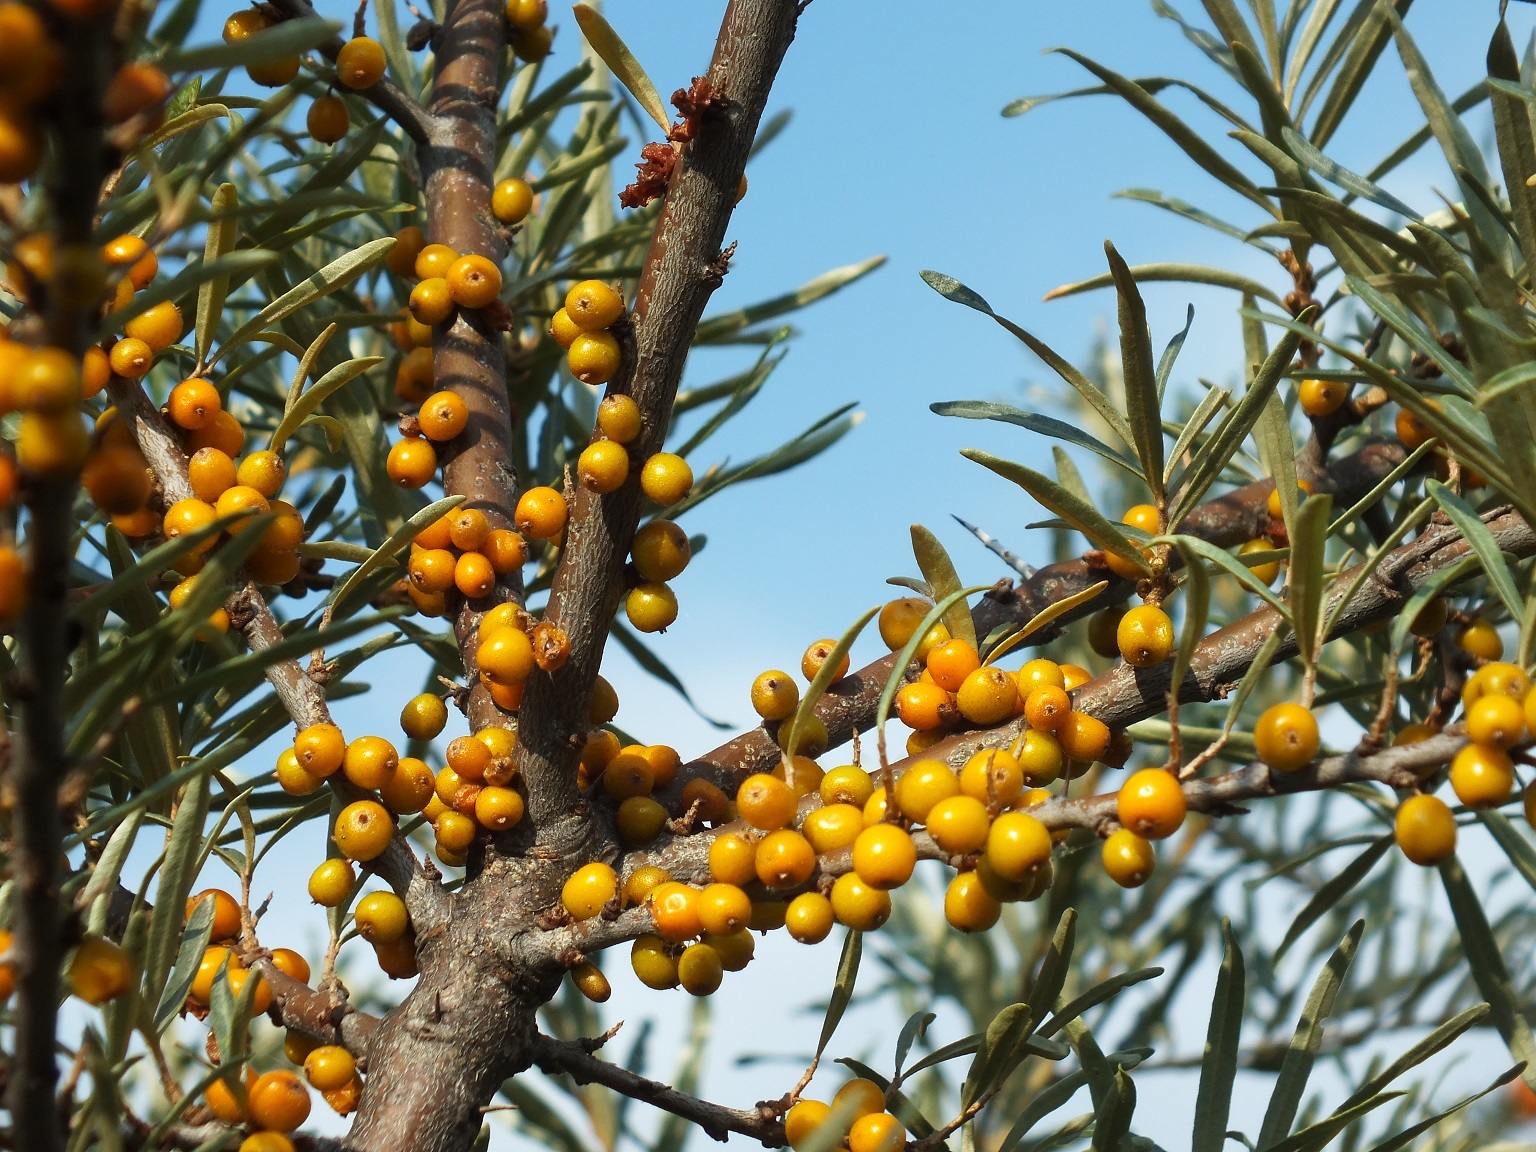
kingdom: Plantae
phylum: Tracheophyta
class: Magnoliopsida
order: Rosales
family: Elaeagnaceae
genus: Hippophae
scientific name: Hippophae rhamnoides
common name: Sea-buckthorn
